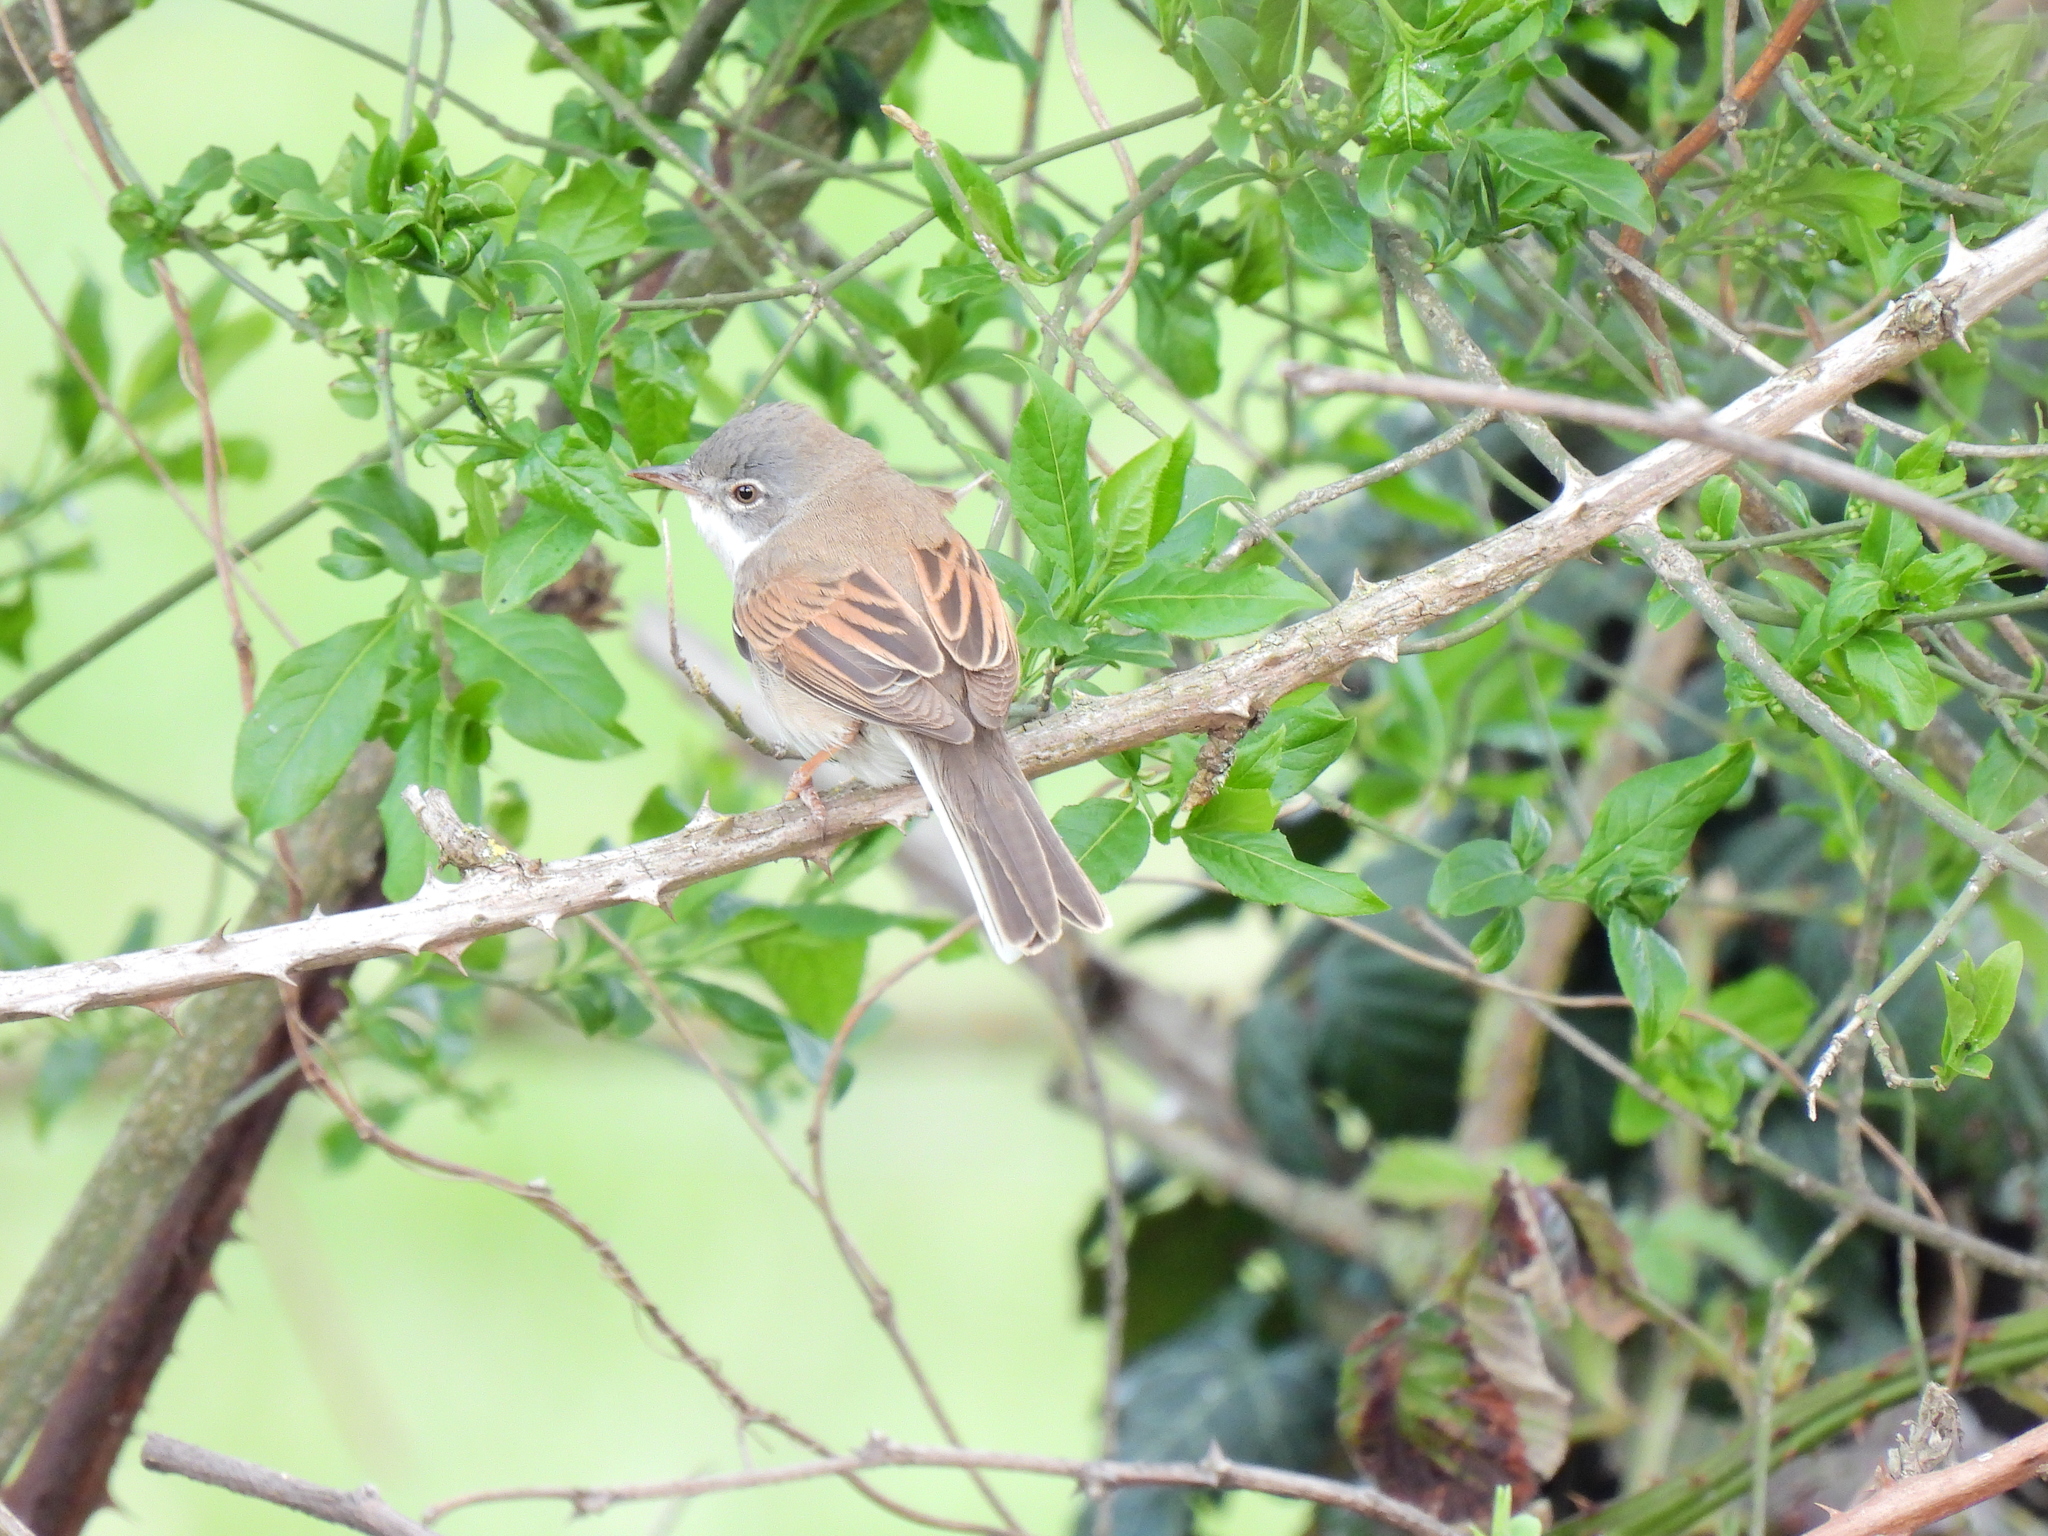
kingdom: Animalia
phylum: Chordata
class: Aves
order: Passeriformes
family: Sylviidae
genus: Sylvia
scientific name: Sylvia communis
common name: Common whitethroat
